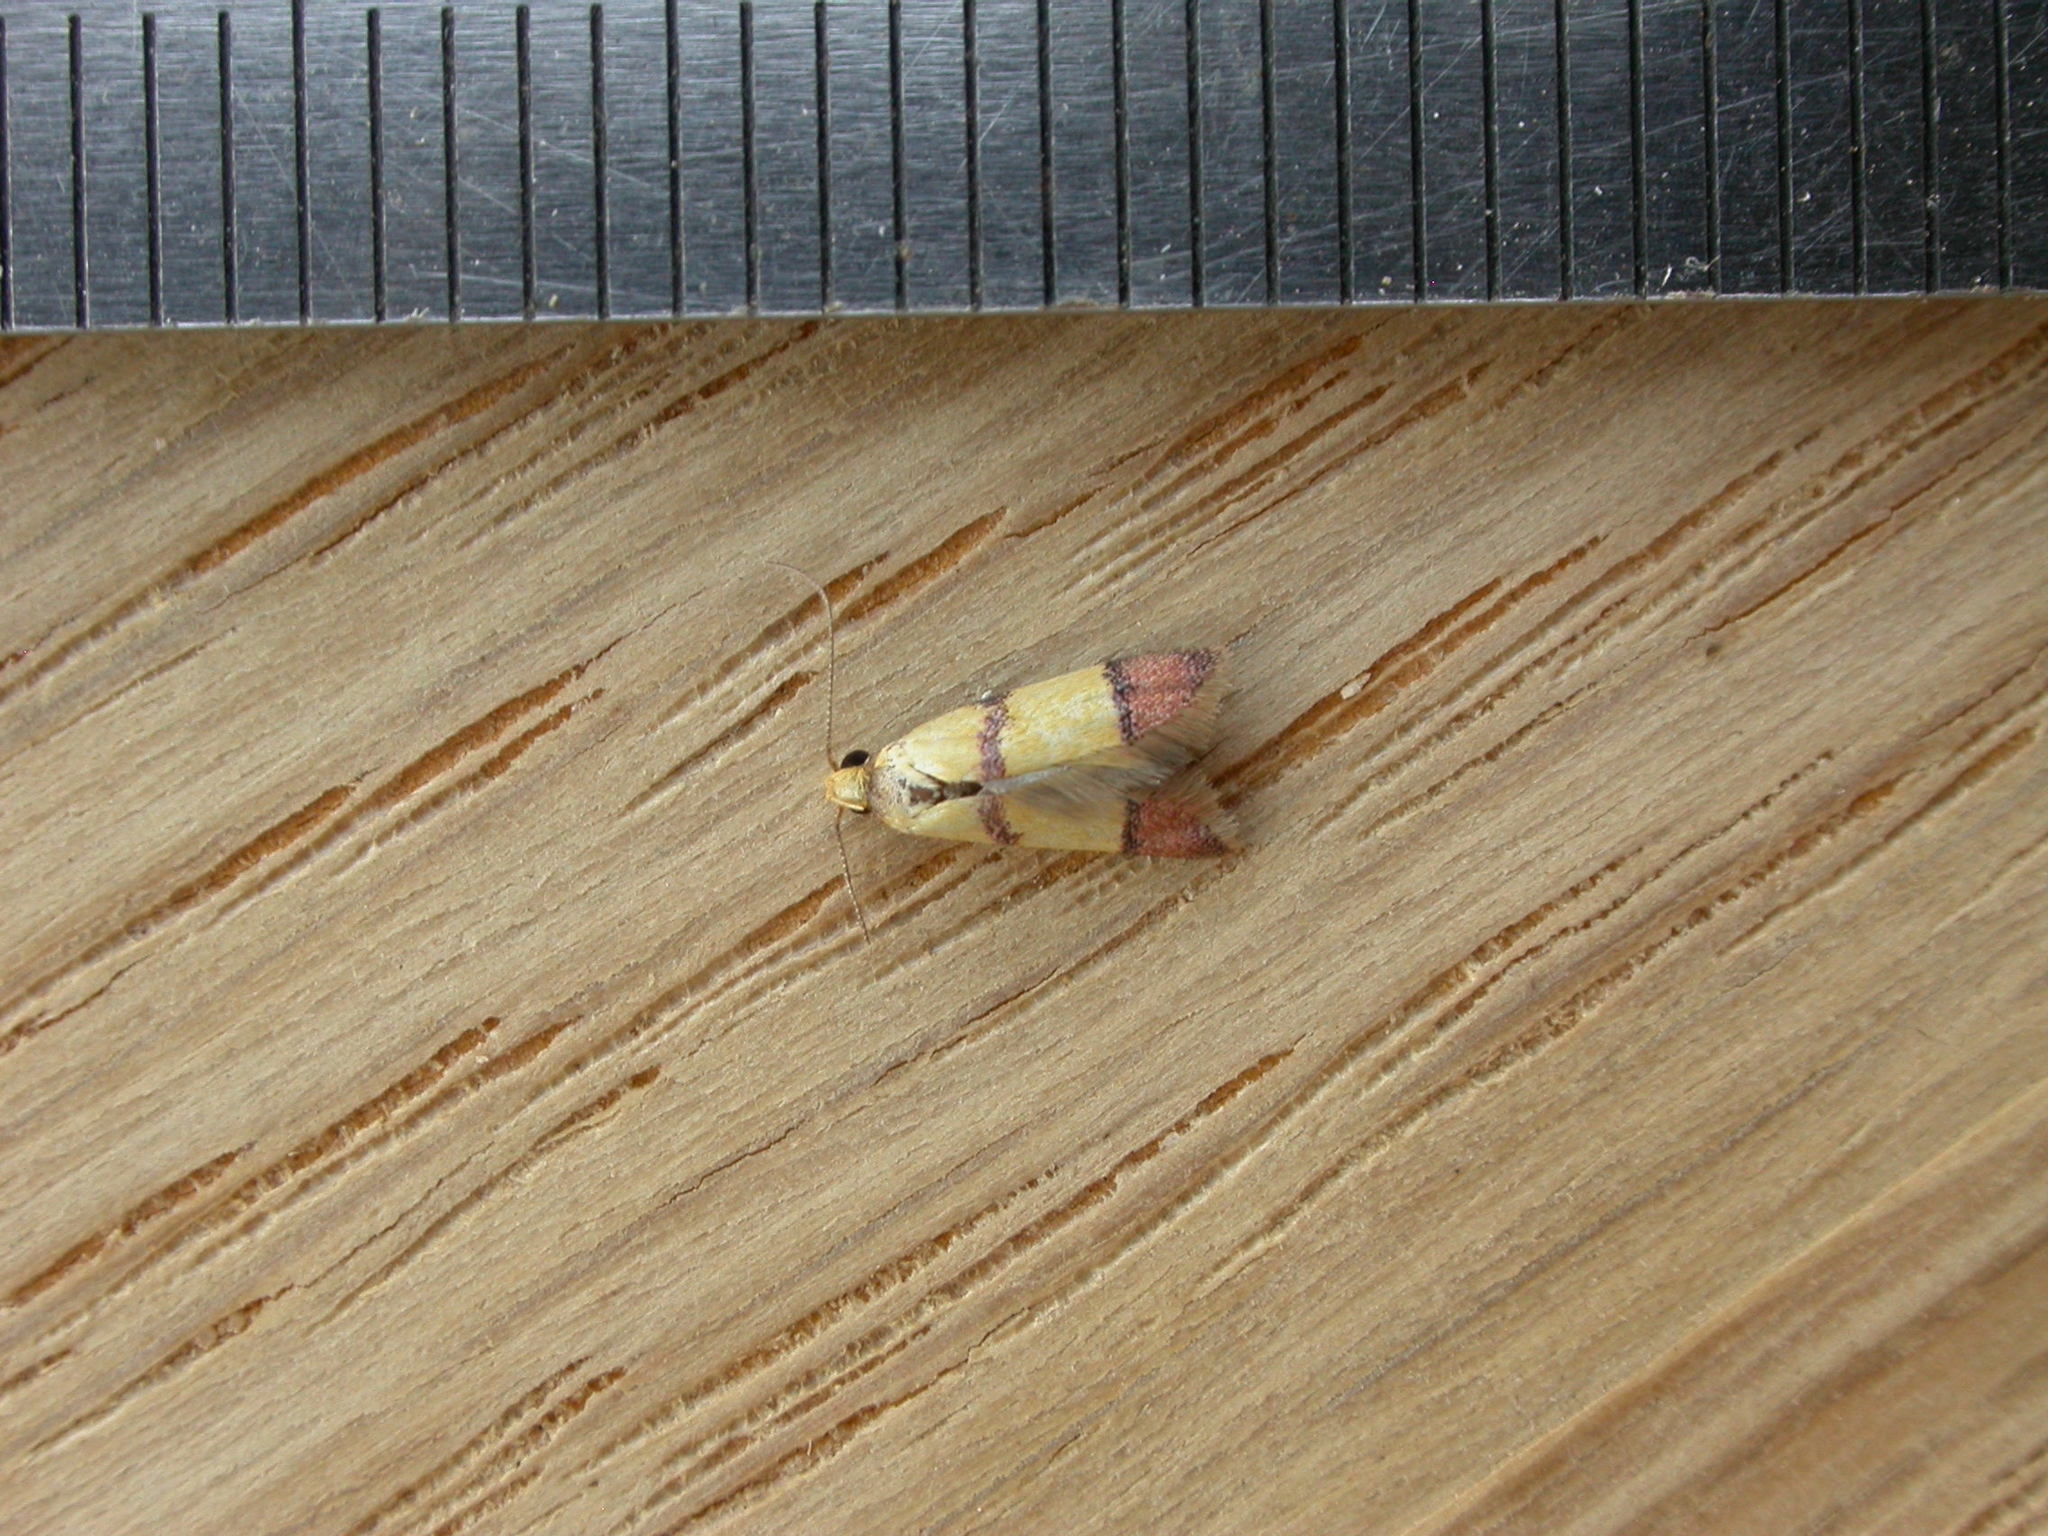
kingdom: Animalia
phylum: Arthropoda
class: Insecta
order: Lepidoptera
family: Oecophoridae
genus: Heteroteucha
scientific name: Heteroteucha distephana
